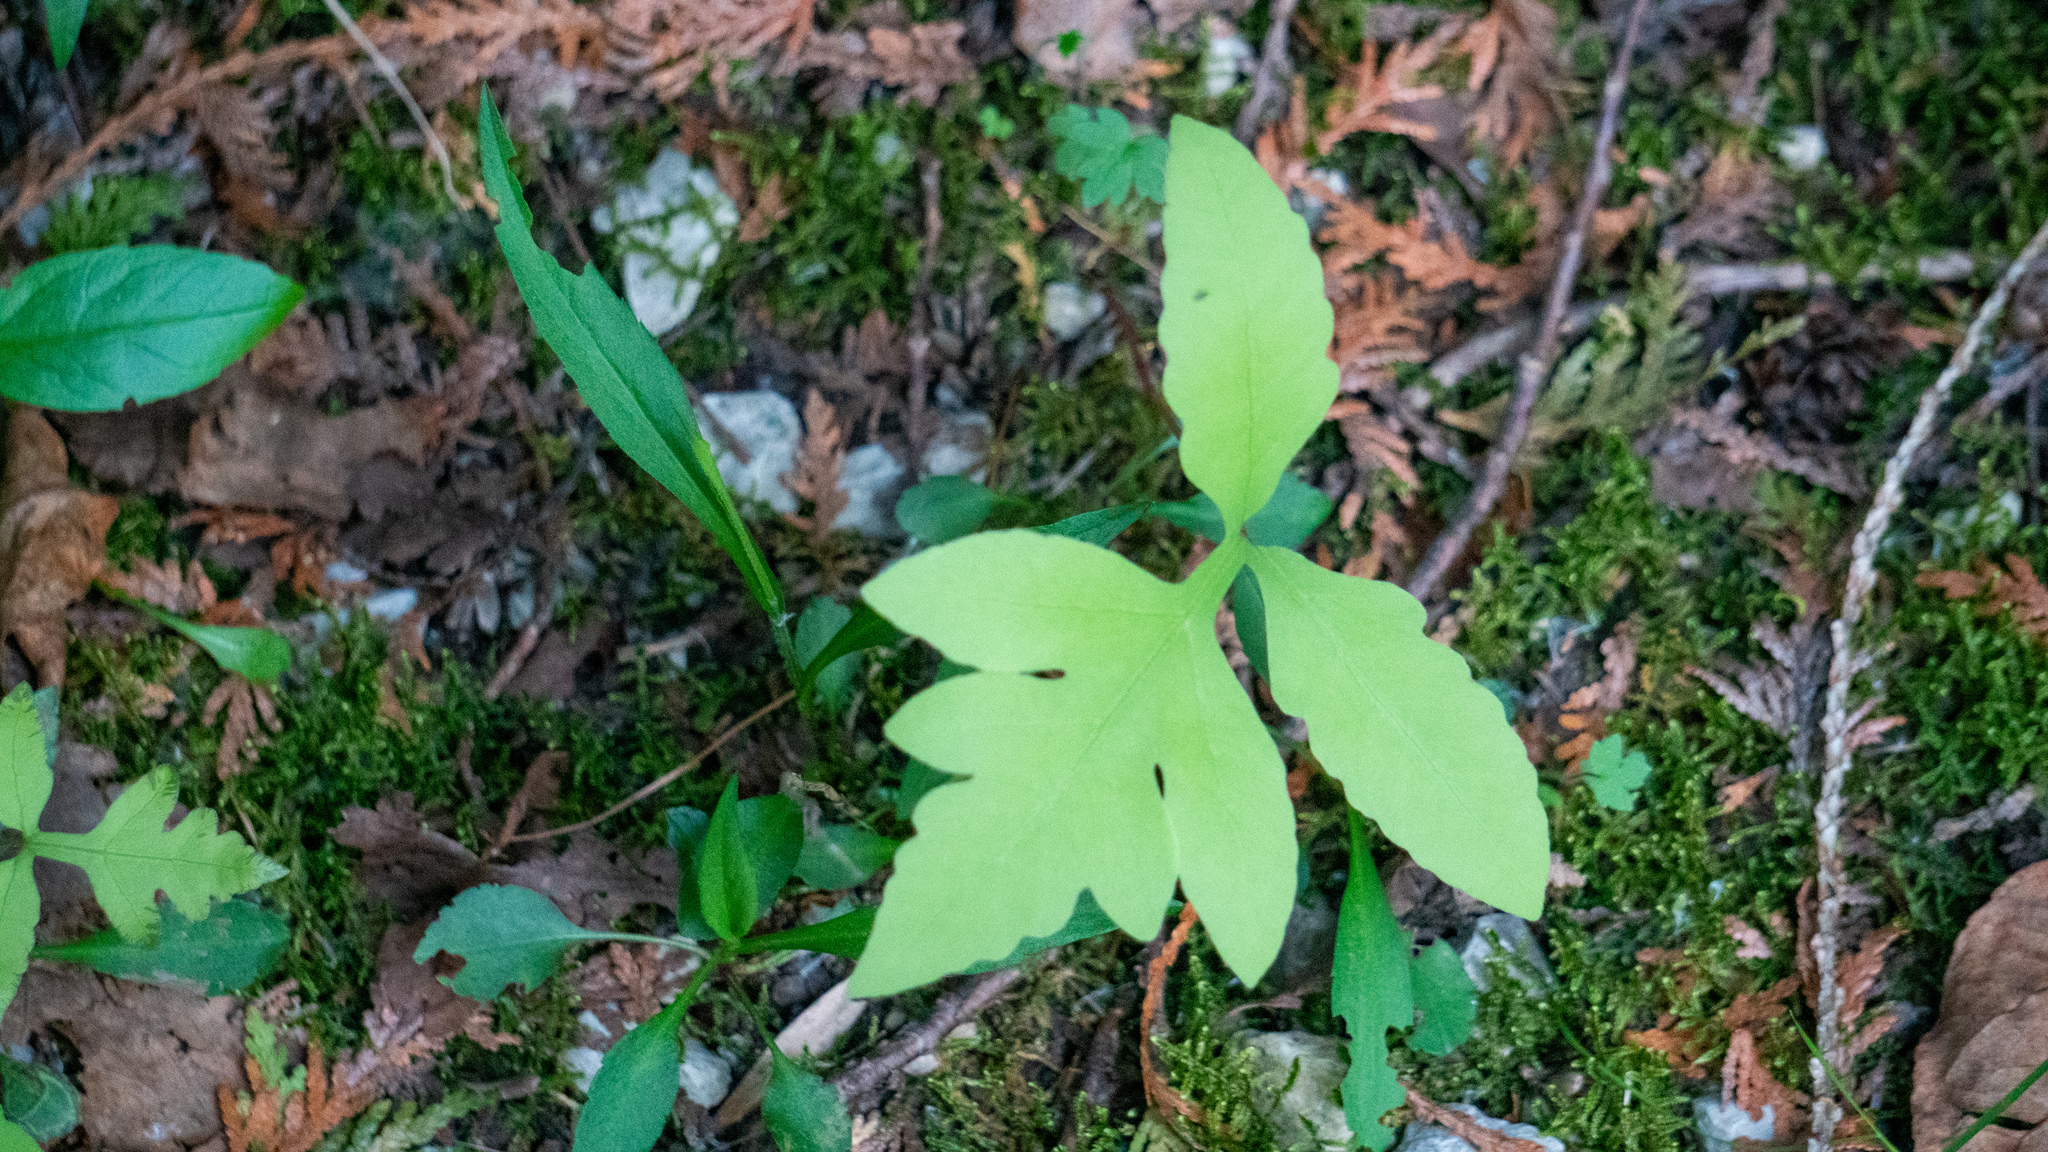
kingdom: Plantae
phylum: Tracheophyta
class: Polypodiopsida
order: Polypodiales
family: Onocleaceae
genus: Onoclea
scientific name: Onoclea sensibilis
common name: Sensitive fern
